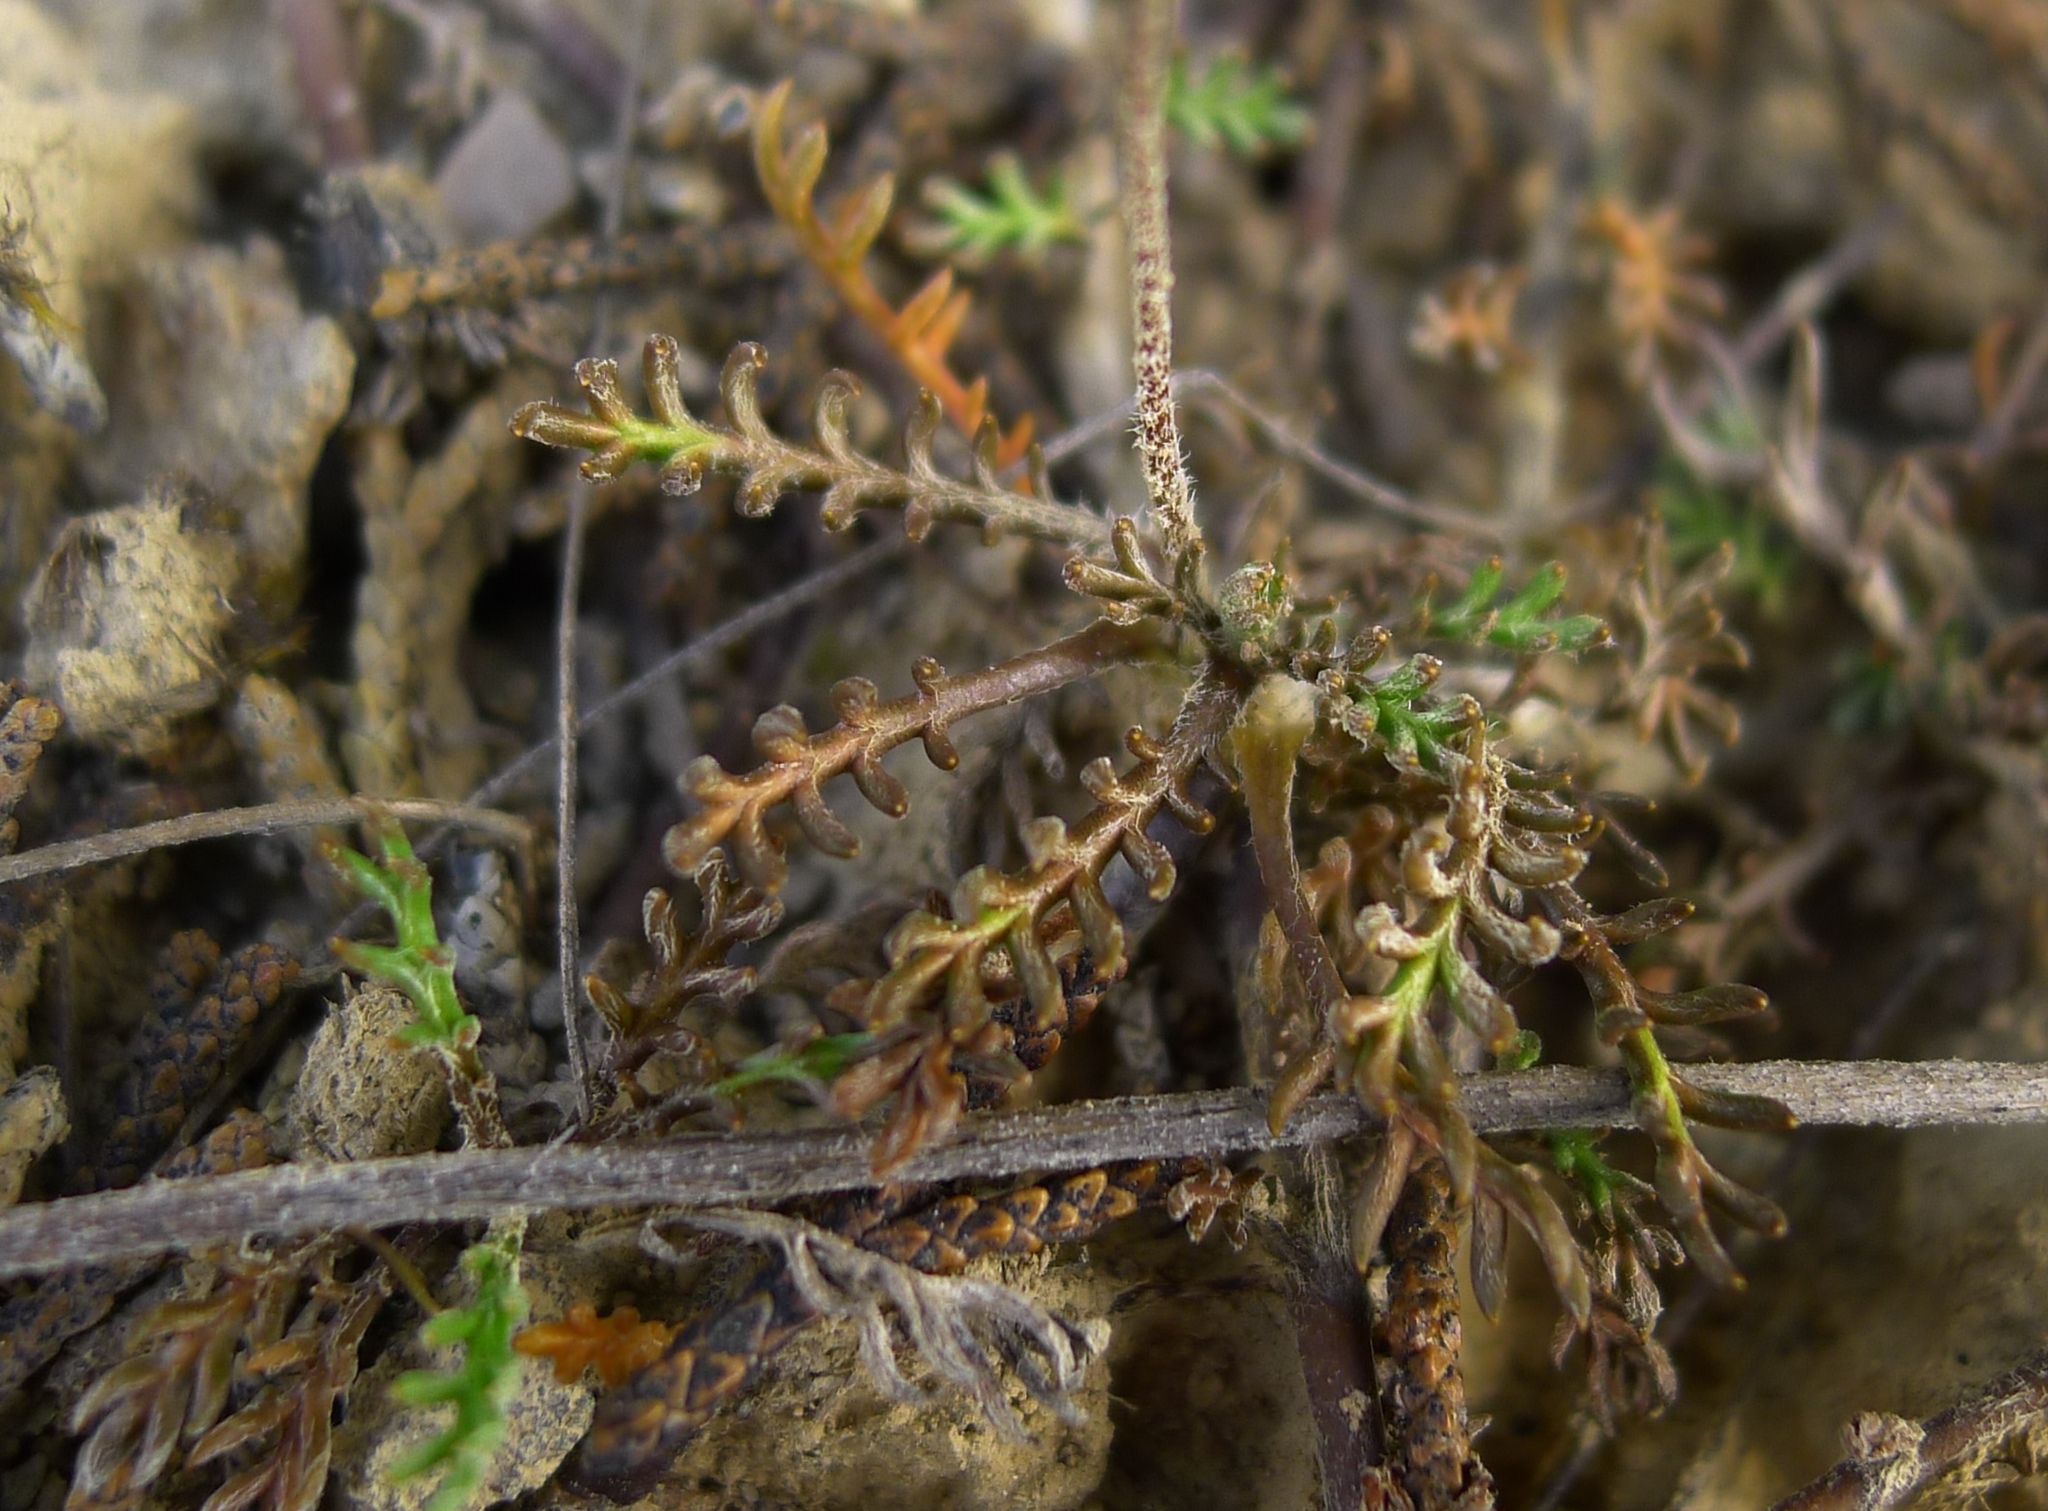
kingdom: Plantae
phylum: Tracheophyta
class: Magnoliopsida
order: Asterales
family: Asteraceae
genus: Leptinella
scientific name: Leptinella pectinata
